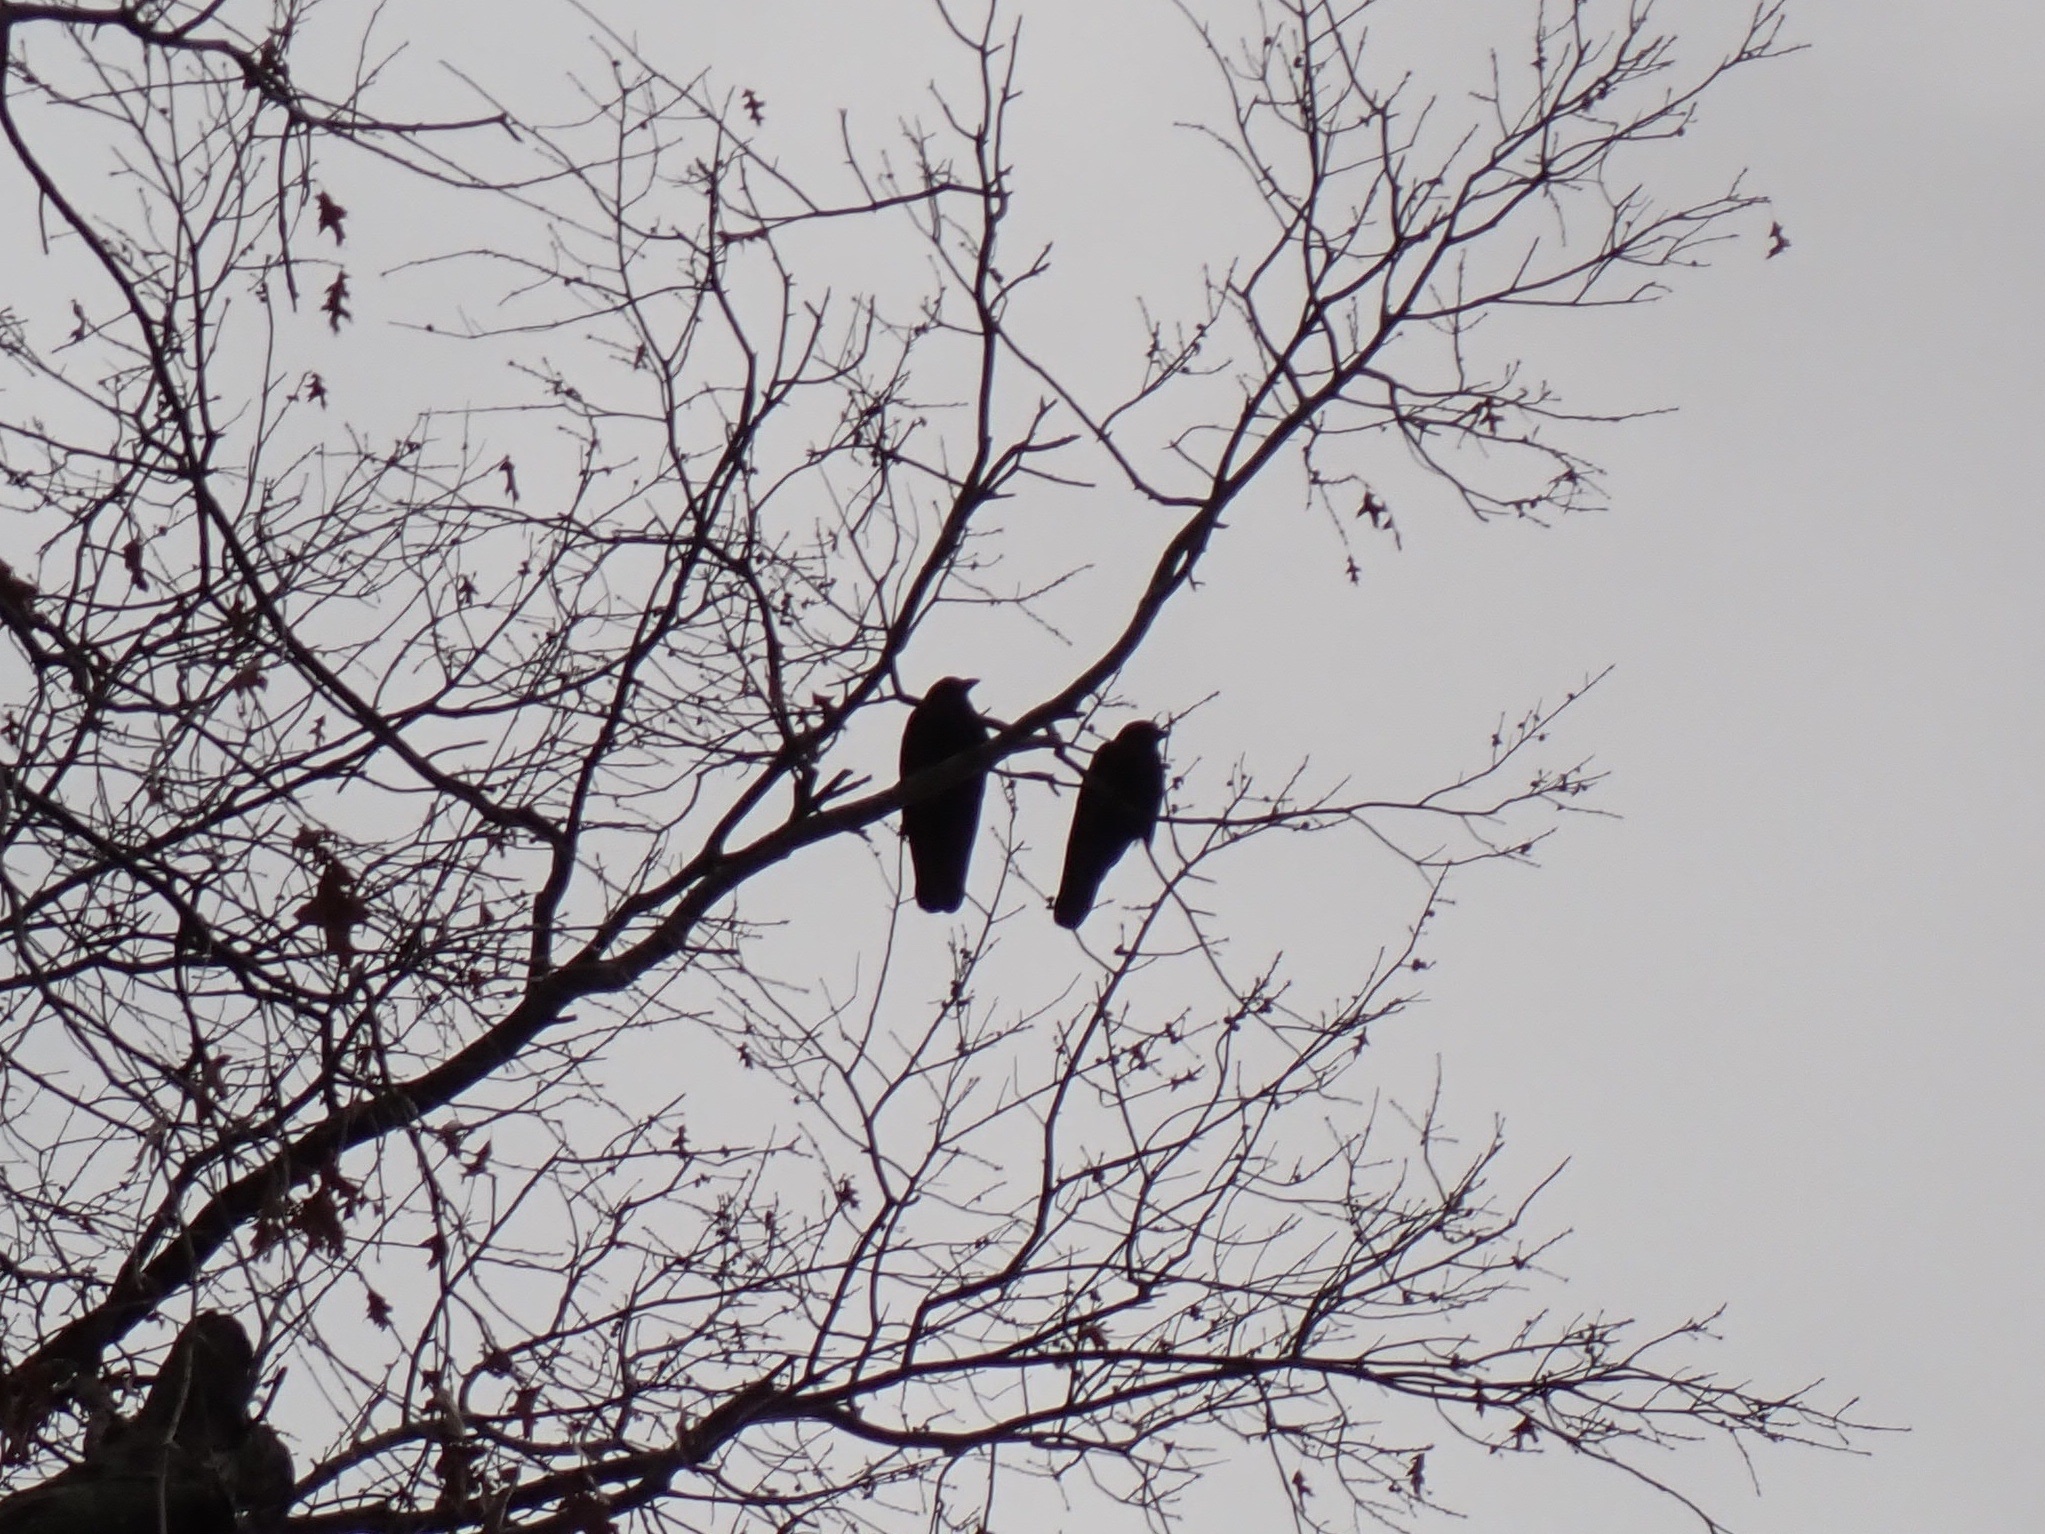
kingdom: Animalia
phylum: Chordata
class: Aves
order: Passeriformes
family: Corvidae
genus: Corvus
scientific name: Corvus
